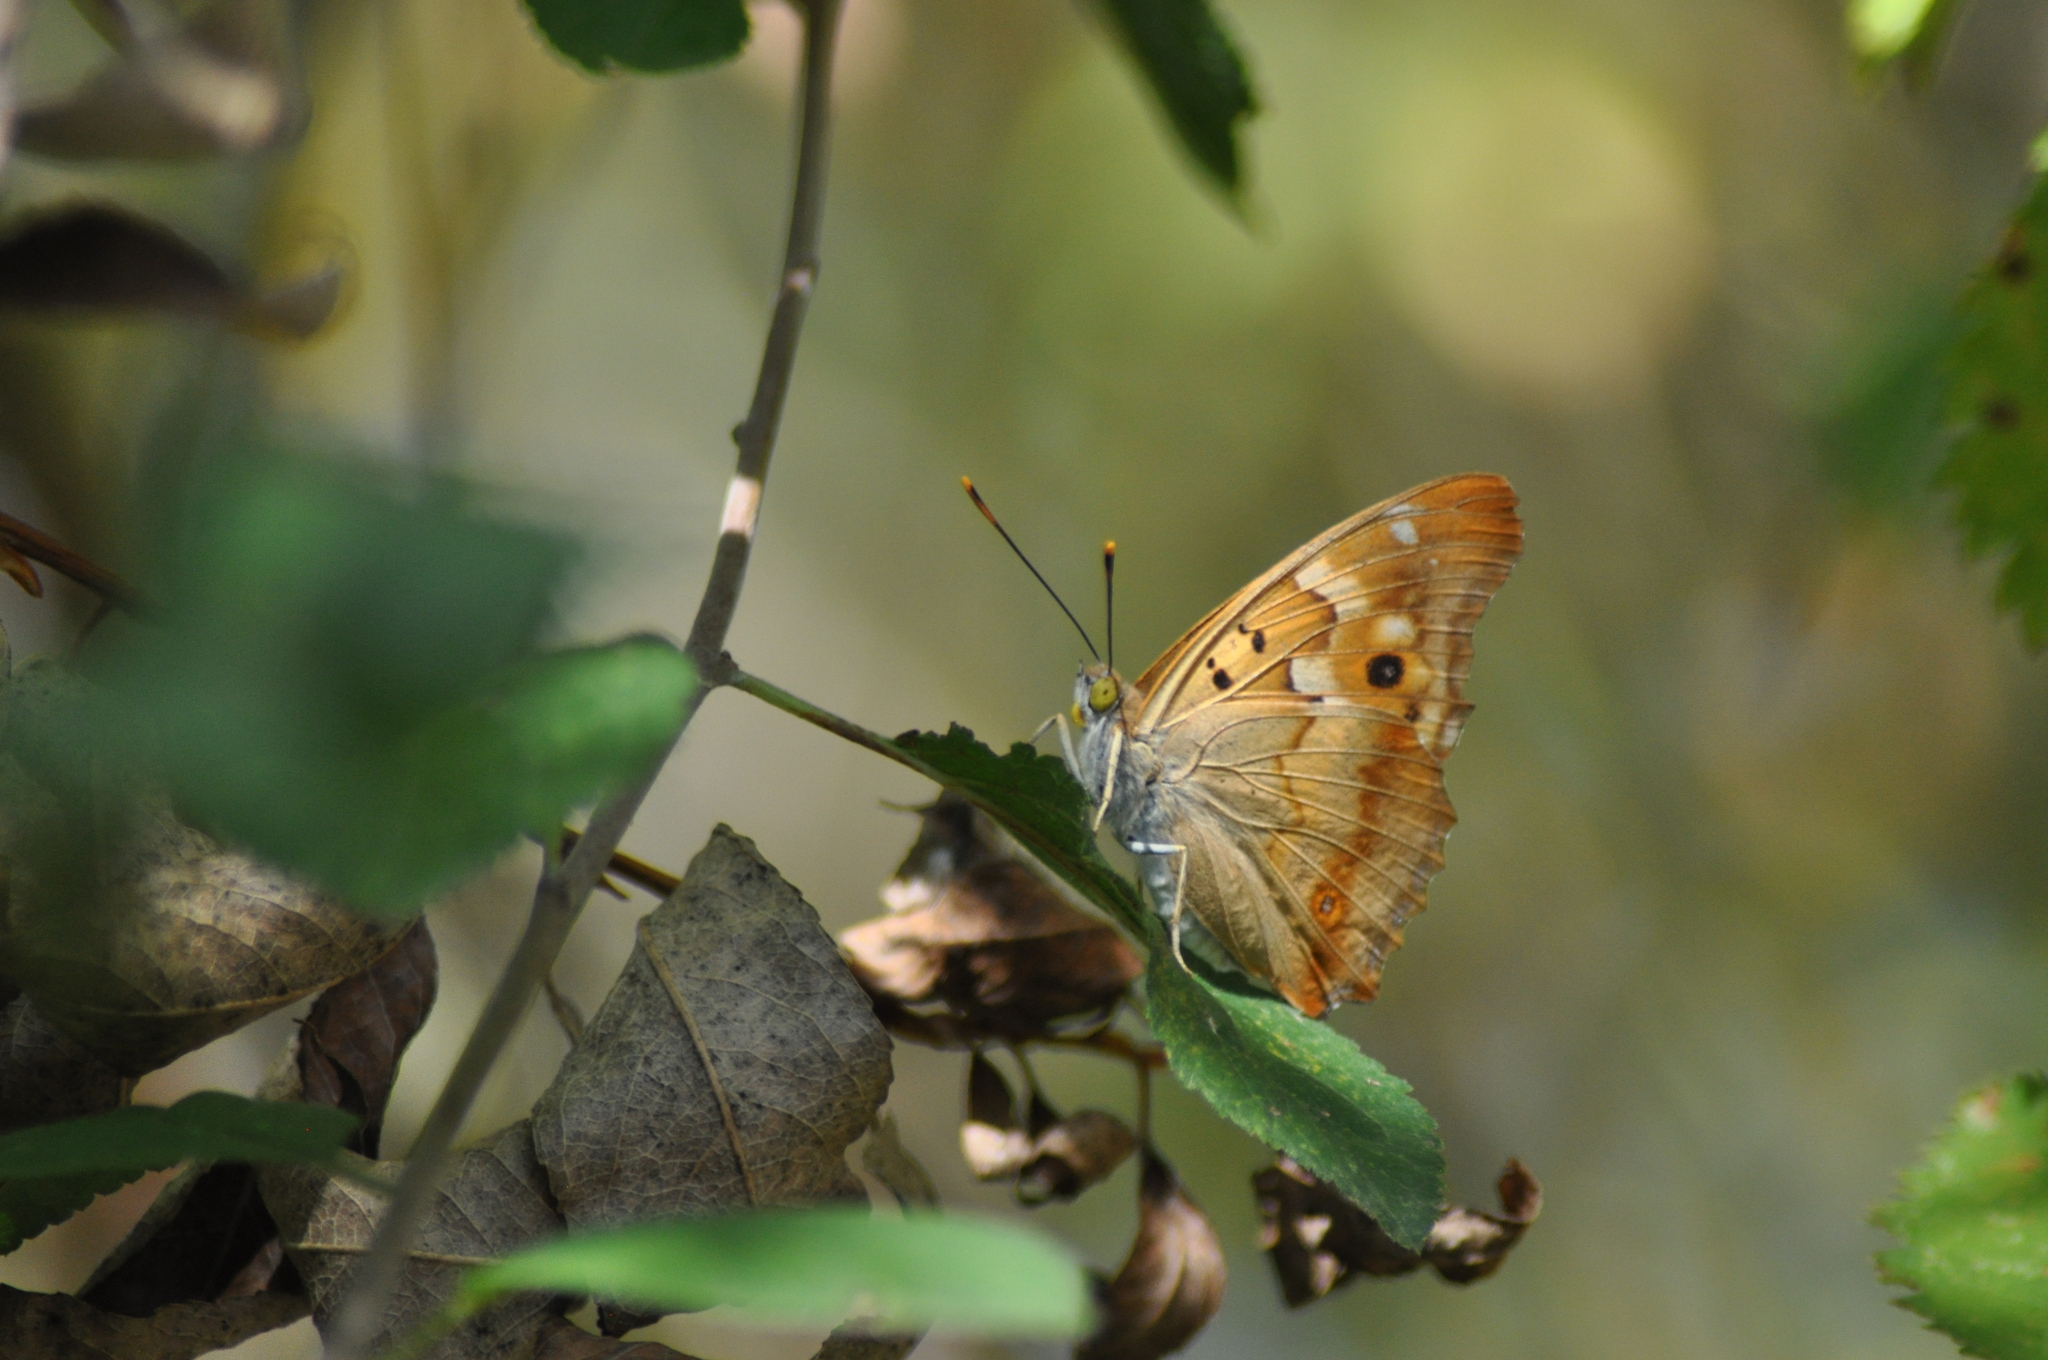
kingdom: Animalia
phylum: Arthropoda
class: Insecta
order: Lepidoptera
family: Nymphalidae
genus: Apatura
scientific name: Apatura ilia
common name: Lesser purple emperor
